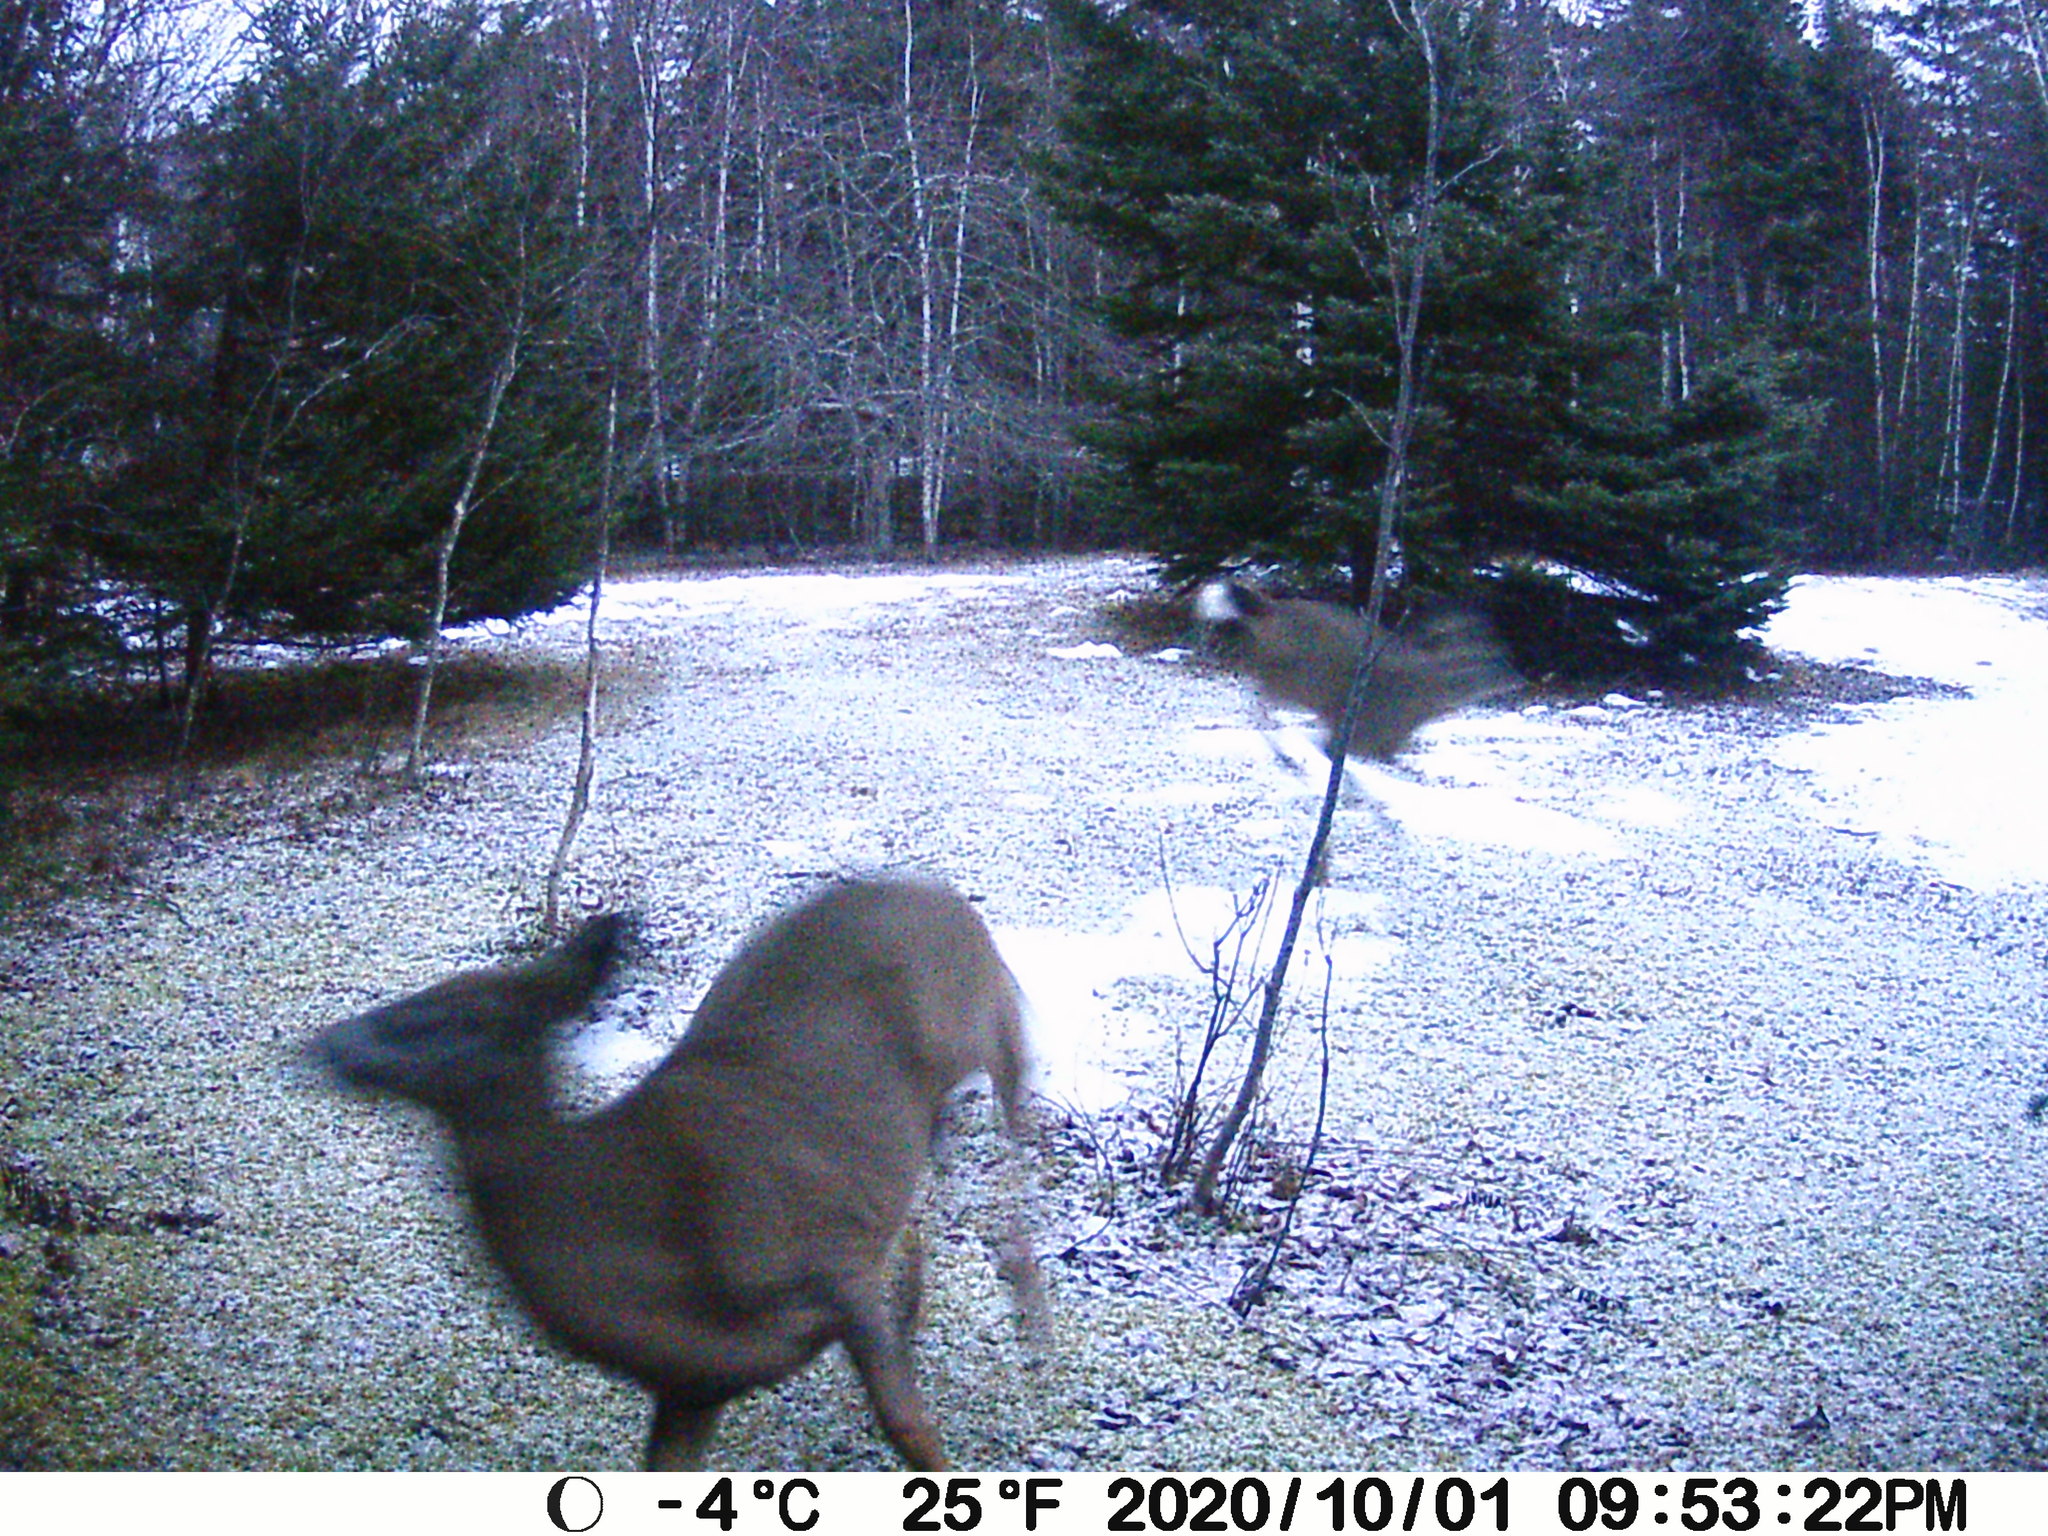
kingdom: Animalia
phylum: Chordata
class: Mammalia
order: Artiodactyla
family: Cervidae
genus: Odocoileus
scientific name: Odocoileus virginianus
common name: White-tailed deer
